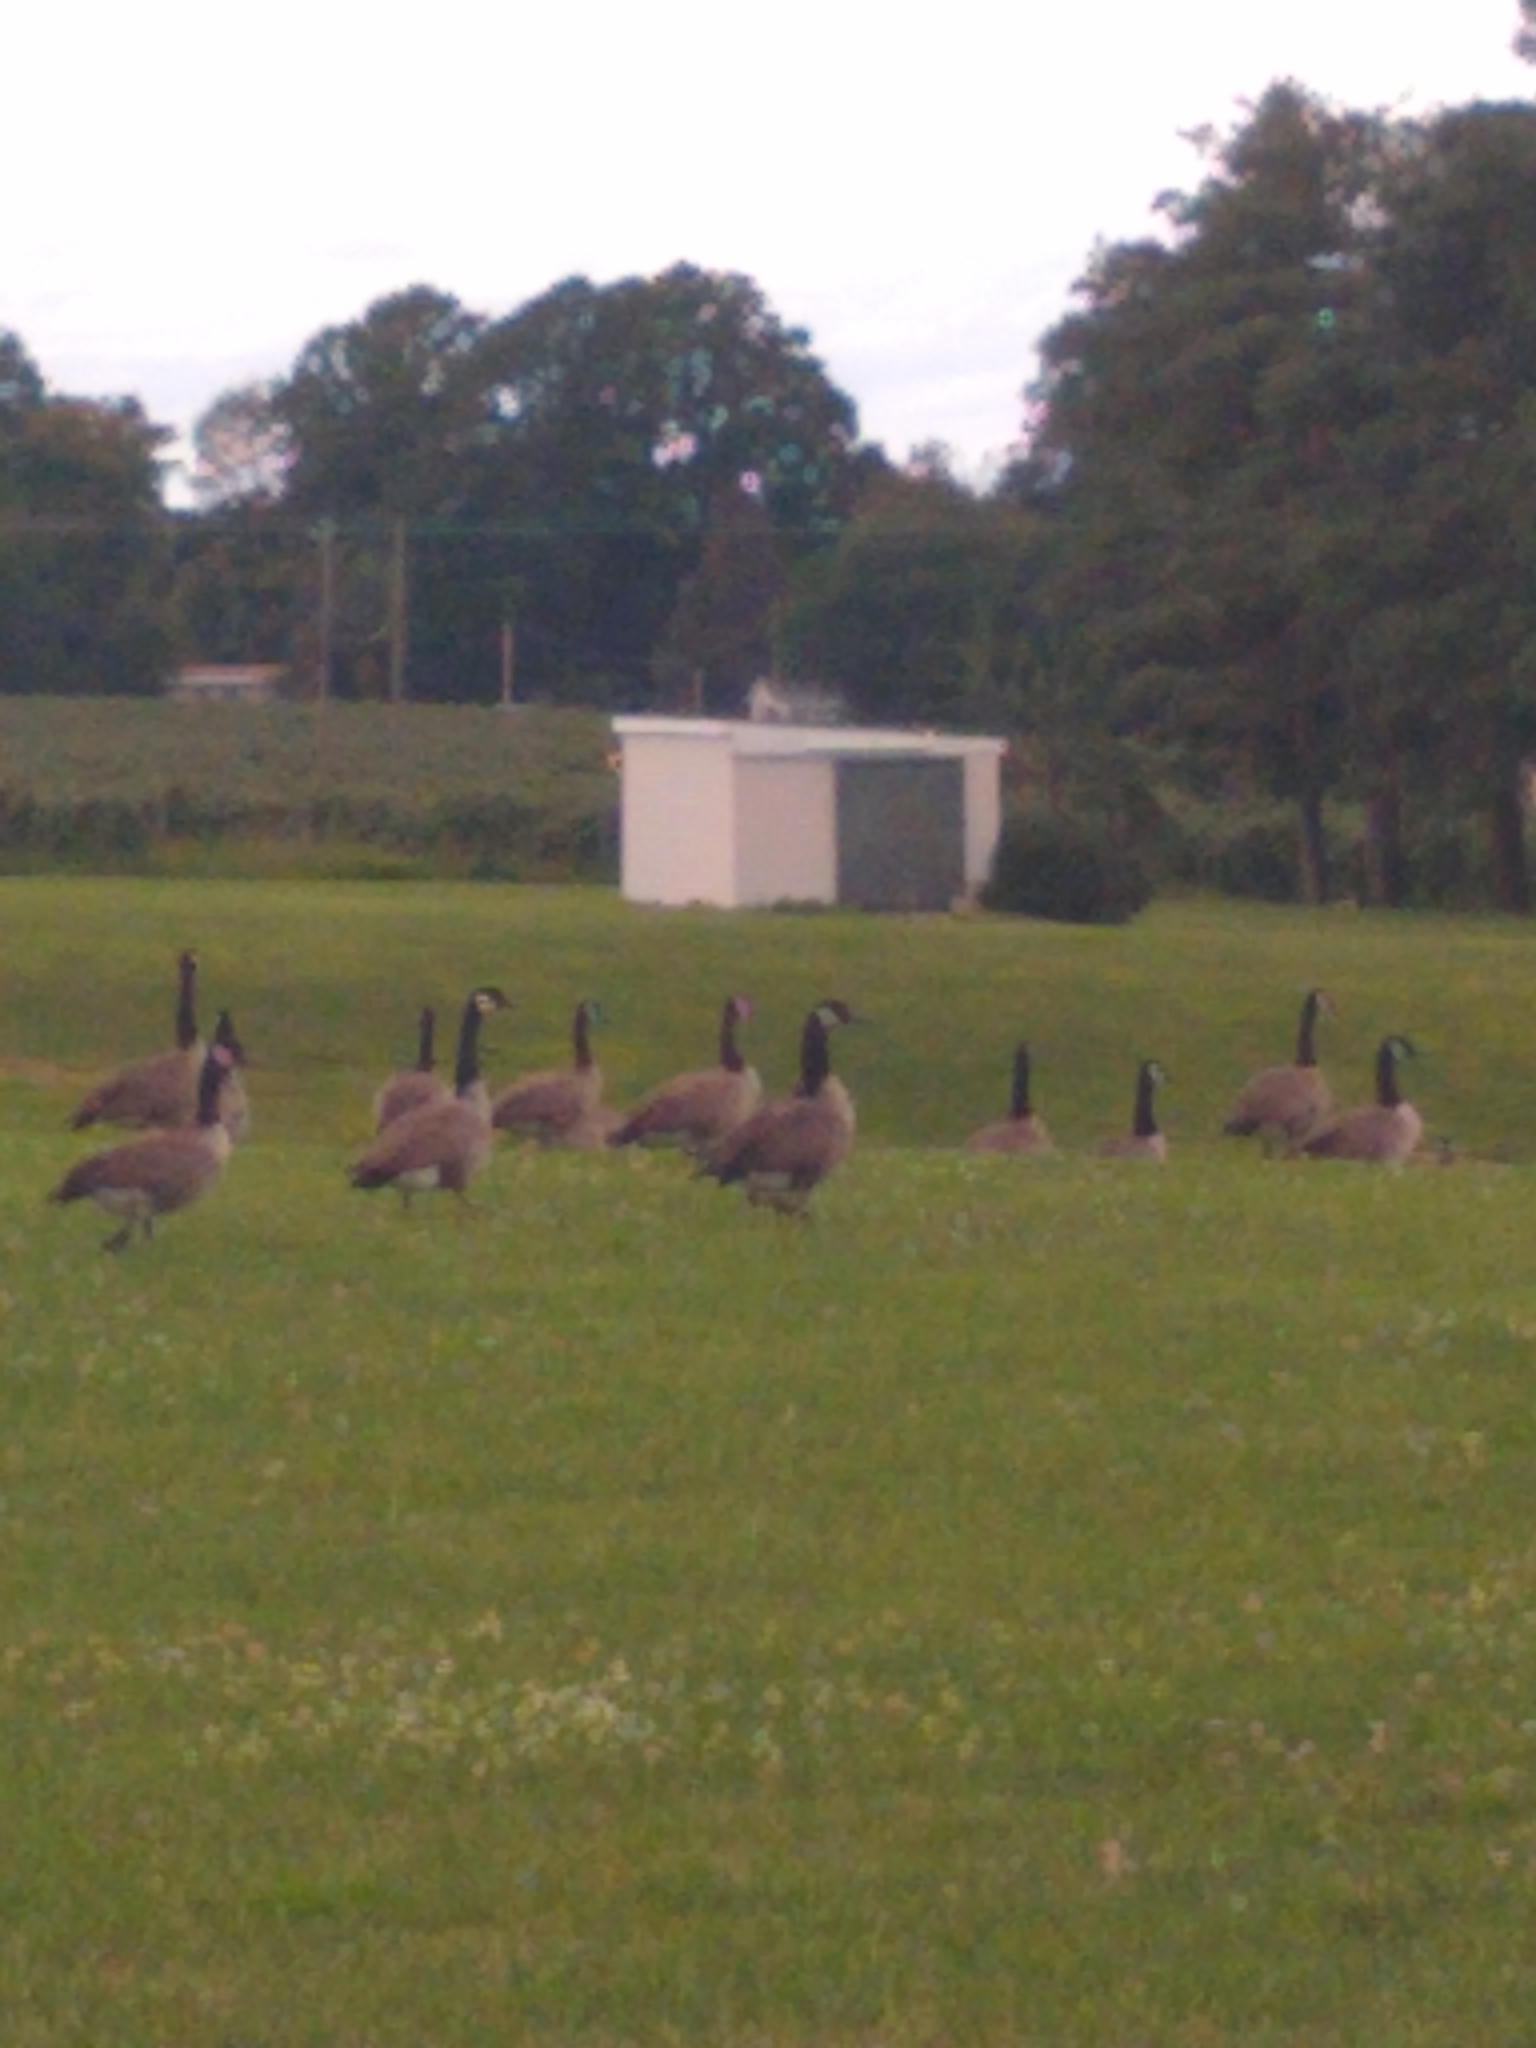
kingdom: Animalia
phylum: Chordata
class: Aves
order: Anseriformes
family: Anatidae
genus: Branta
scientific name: Branta canadensis
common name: Canada goose
